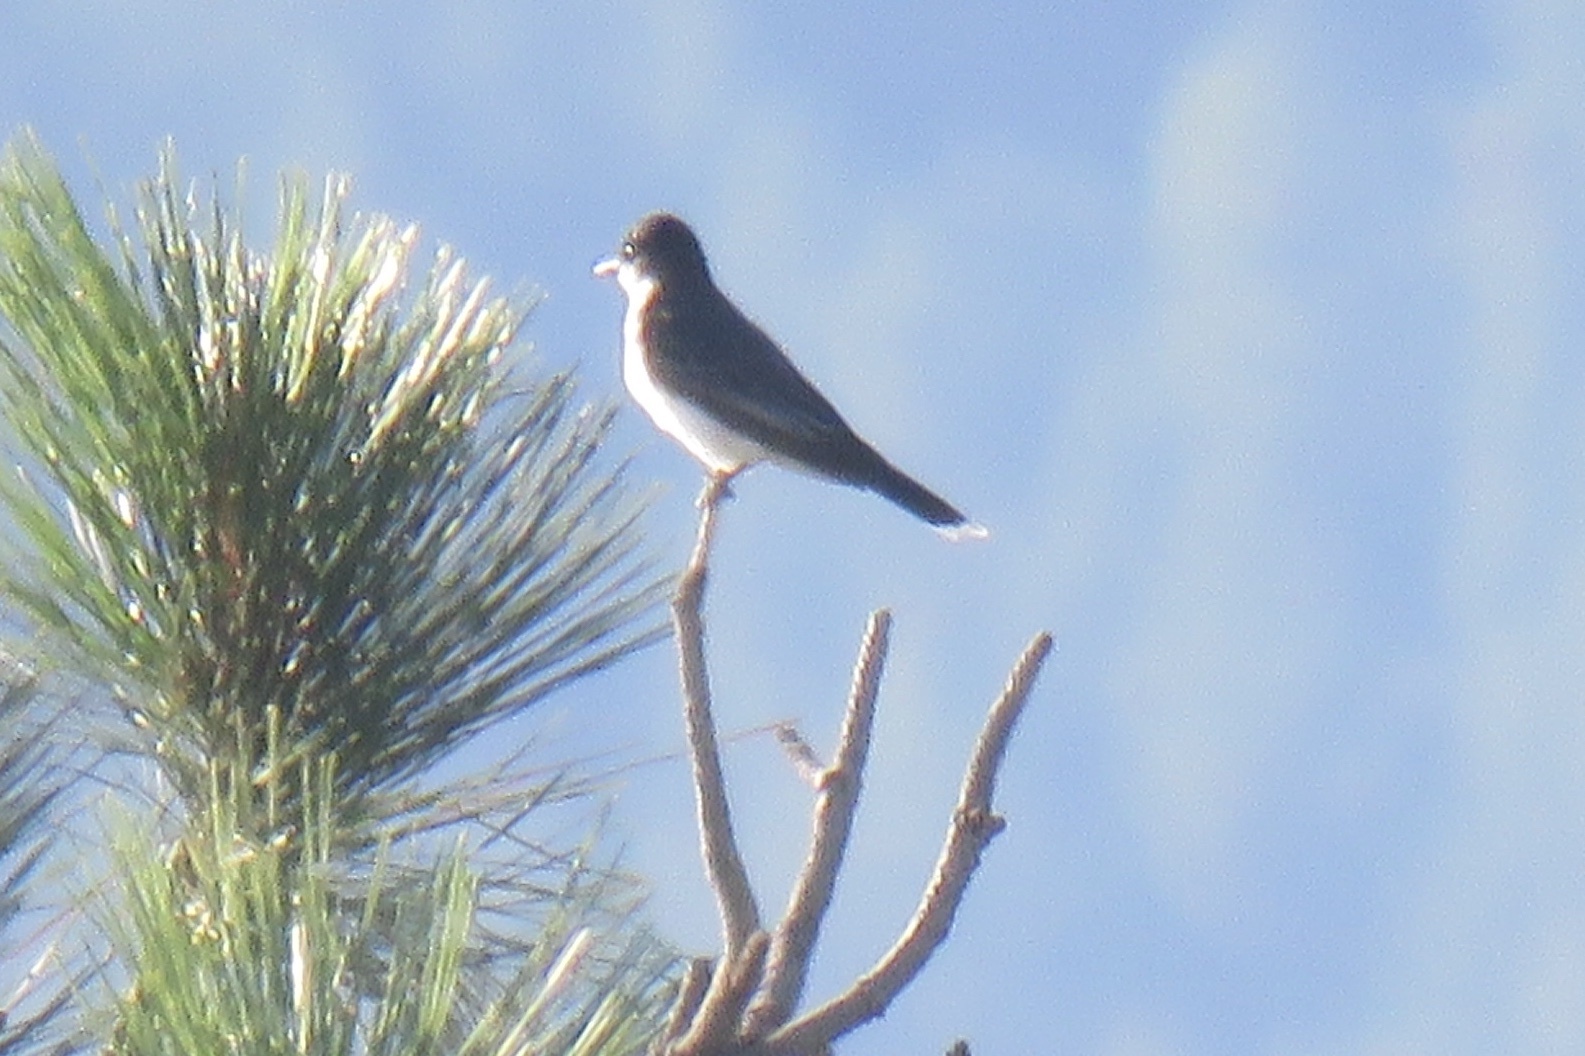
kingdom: Animalia
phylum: Chordata
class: Aves
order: Passeriformes
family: Tyrannidae
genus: Tyrannus
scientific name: Tyrannus tyrannus
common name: Eastern kingbird
